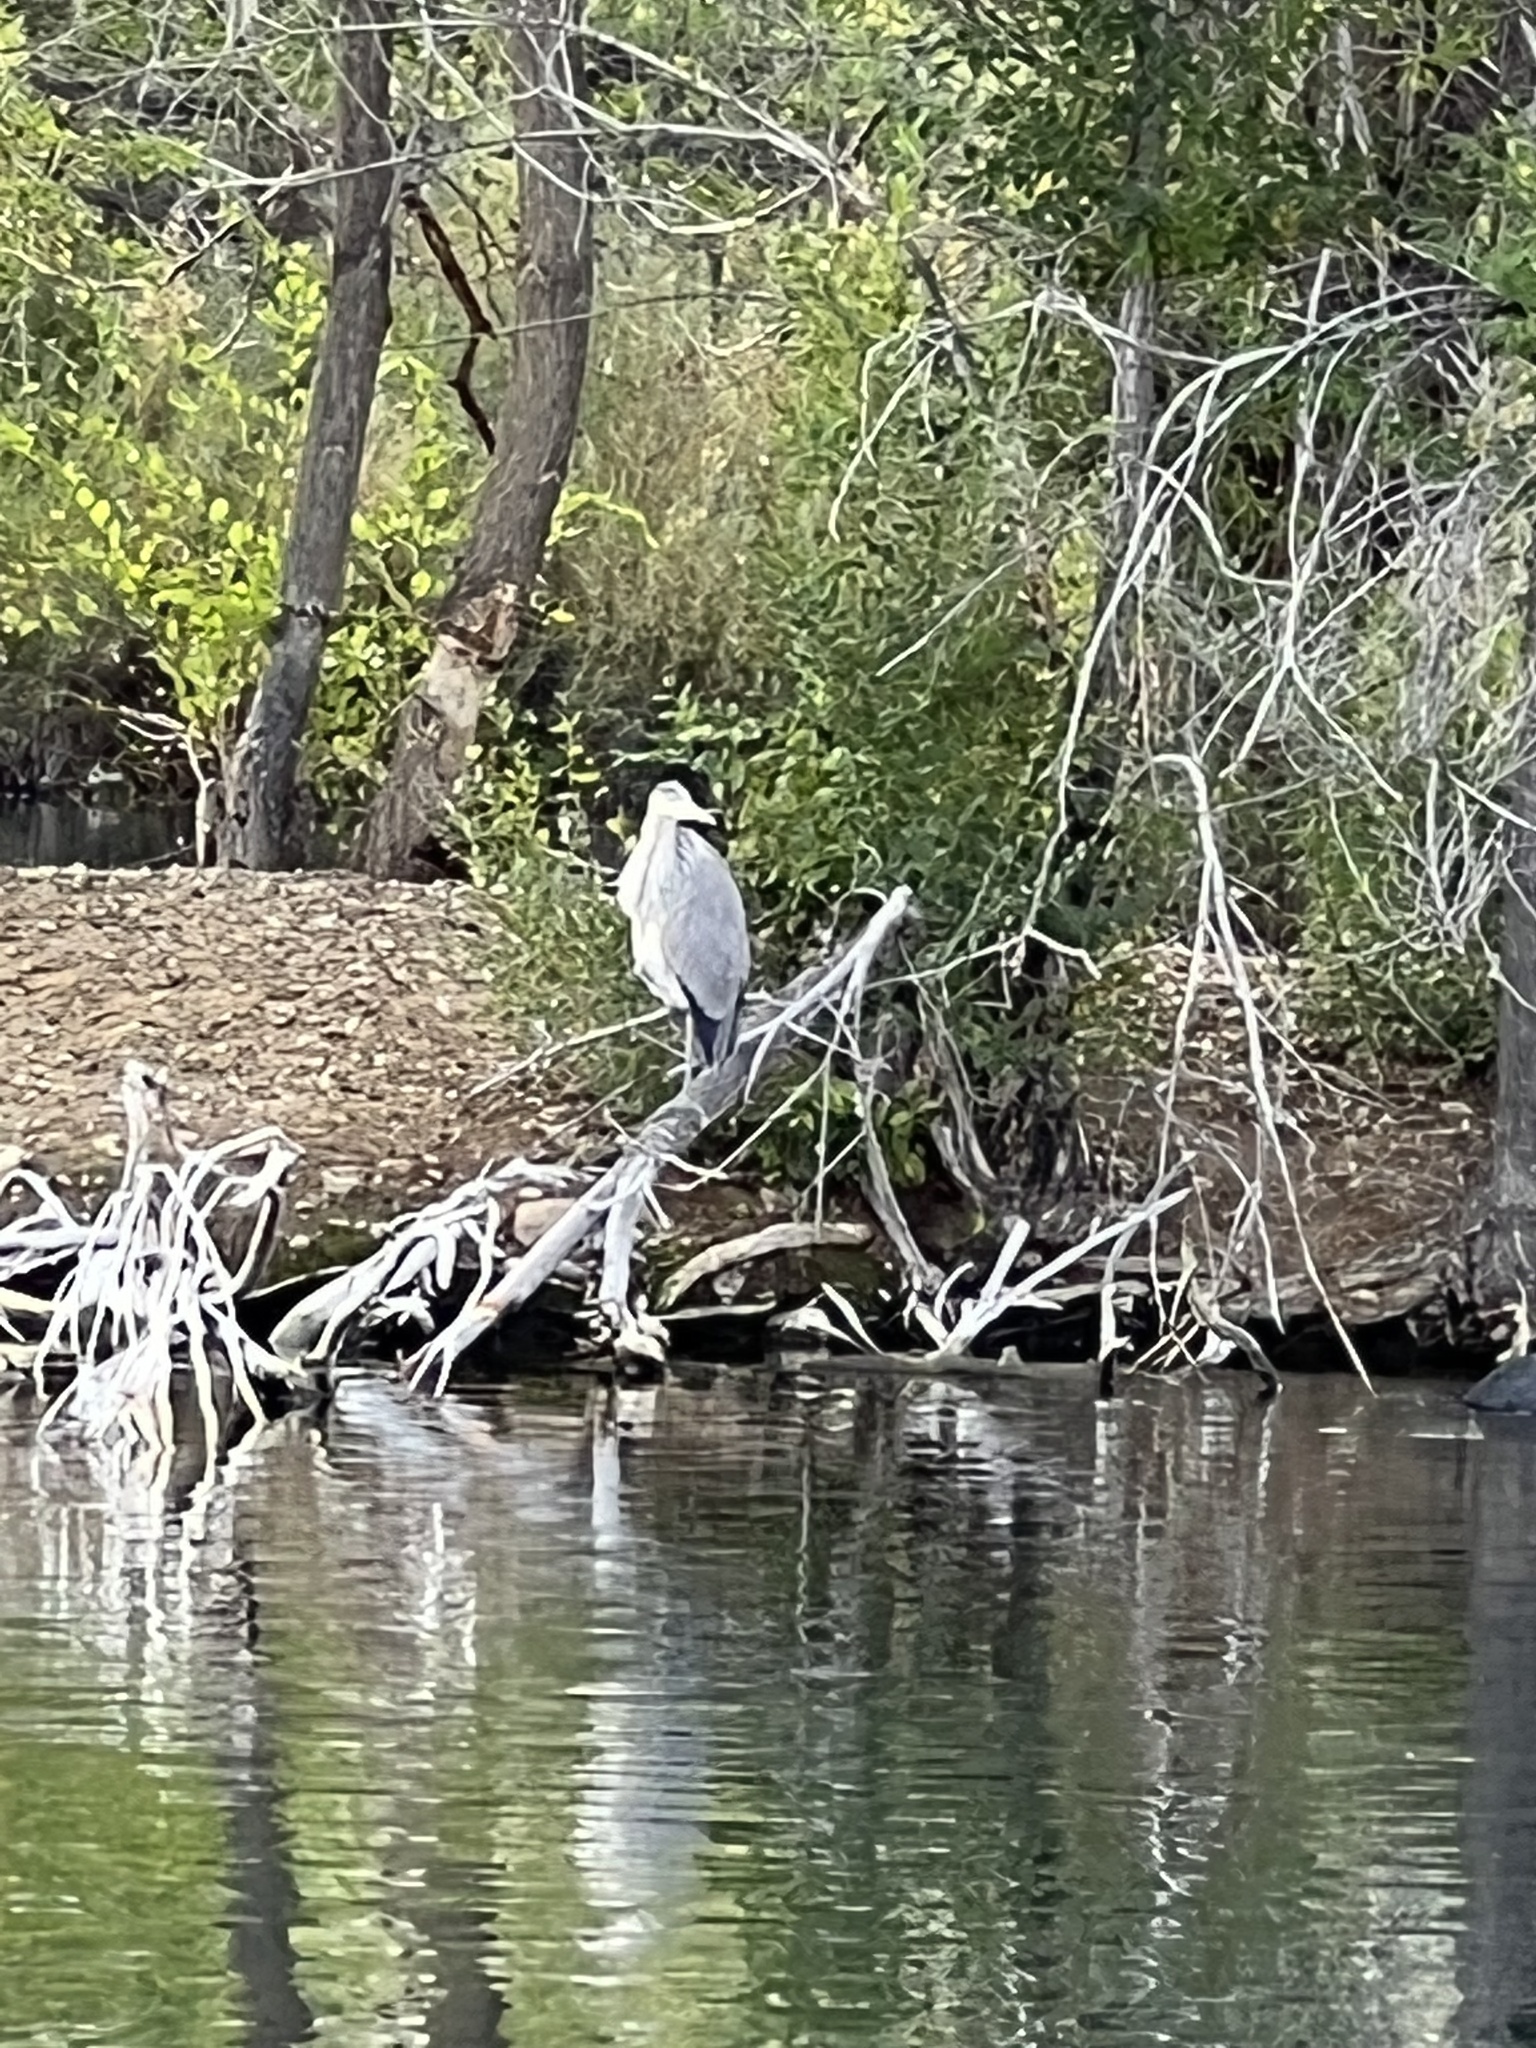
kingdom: Animalia
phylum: Chordata
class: Aves
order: Pelecaniformes
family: Ardeidae
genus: Ardea
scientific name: Ardea herodias
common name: Great blue heron
